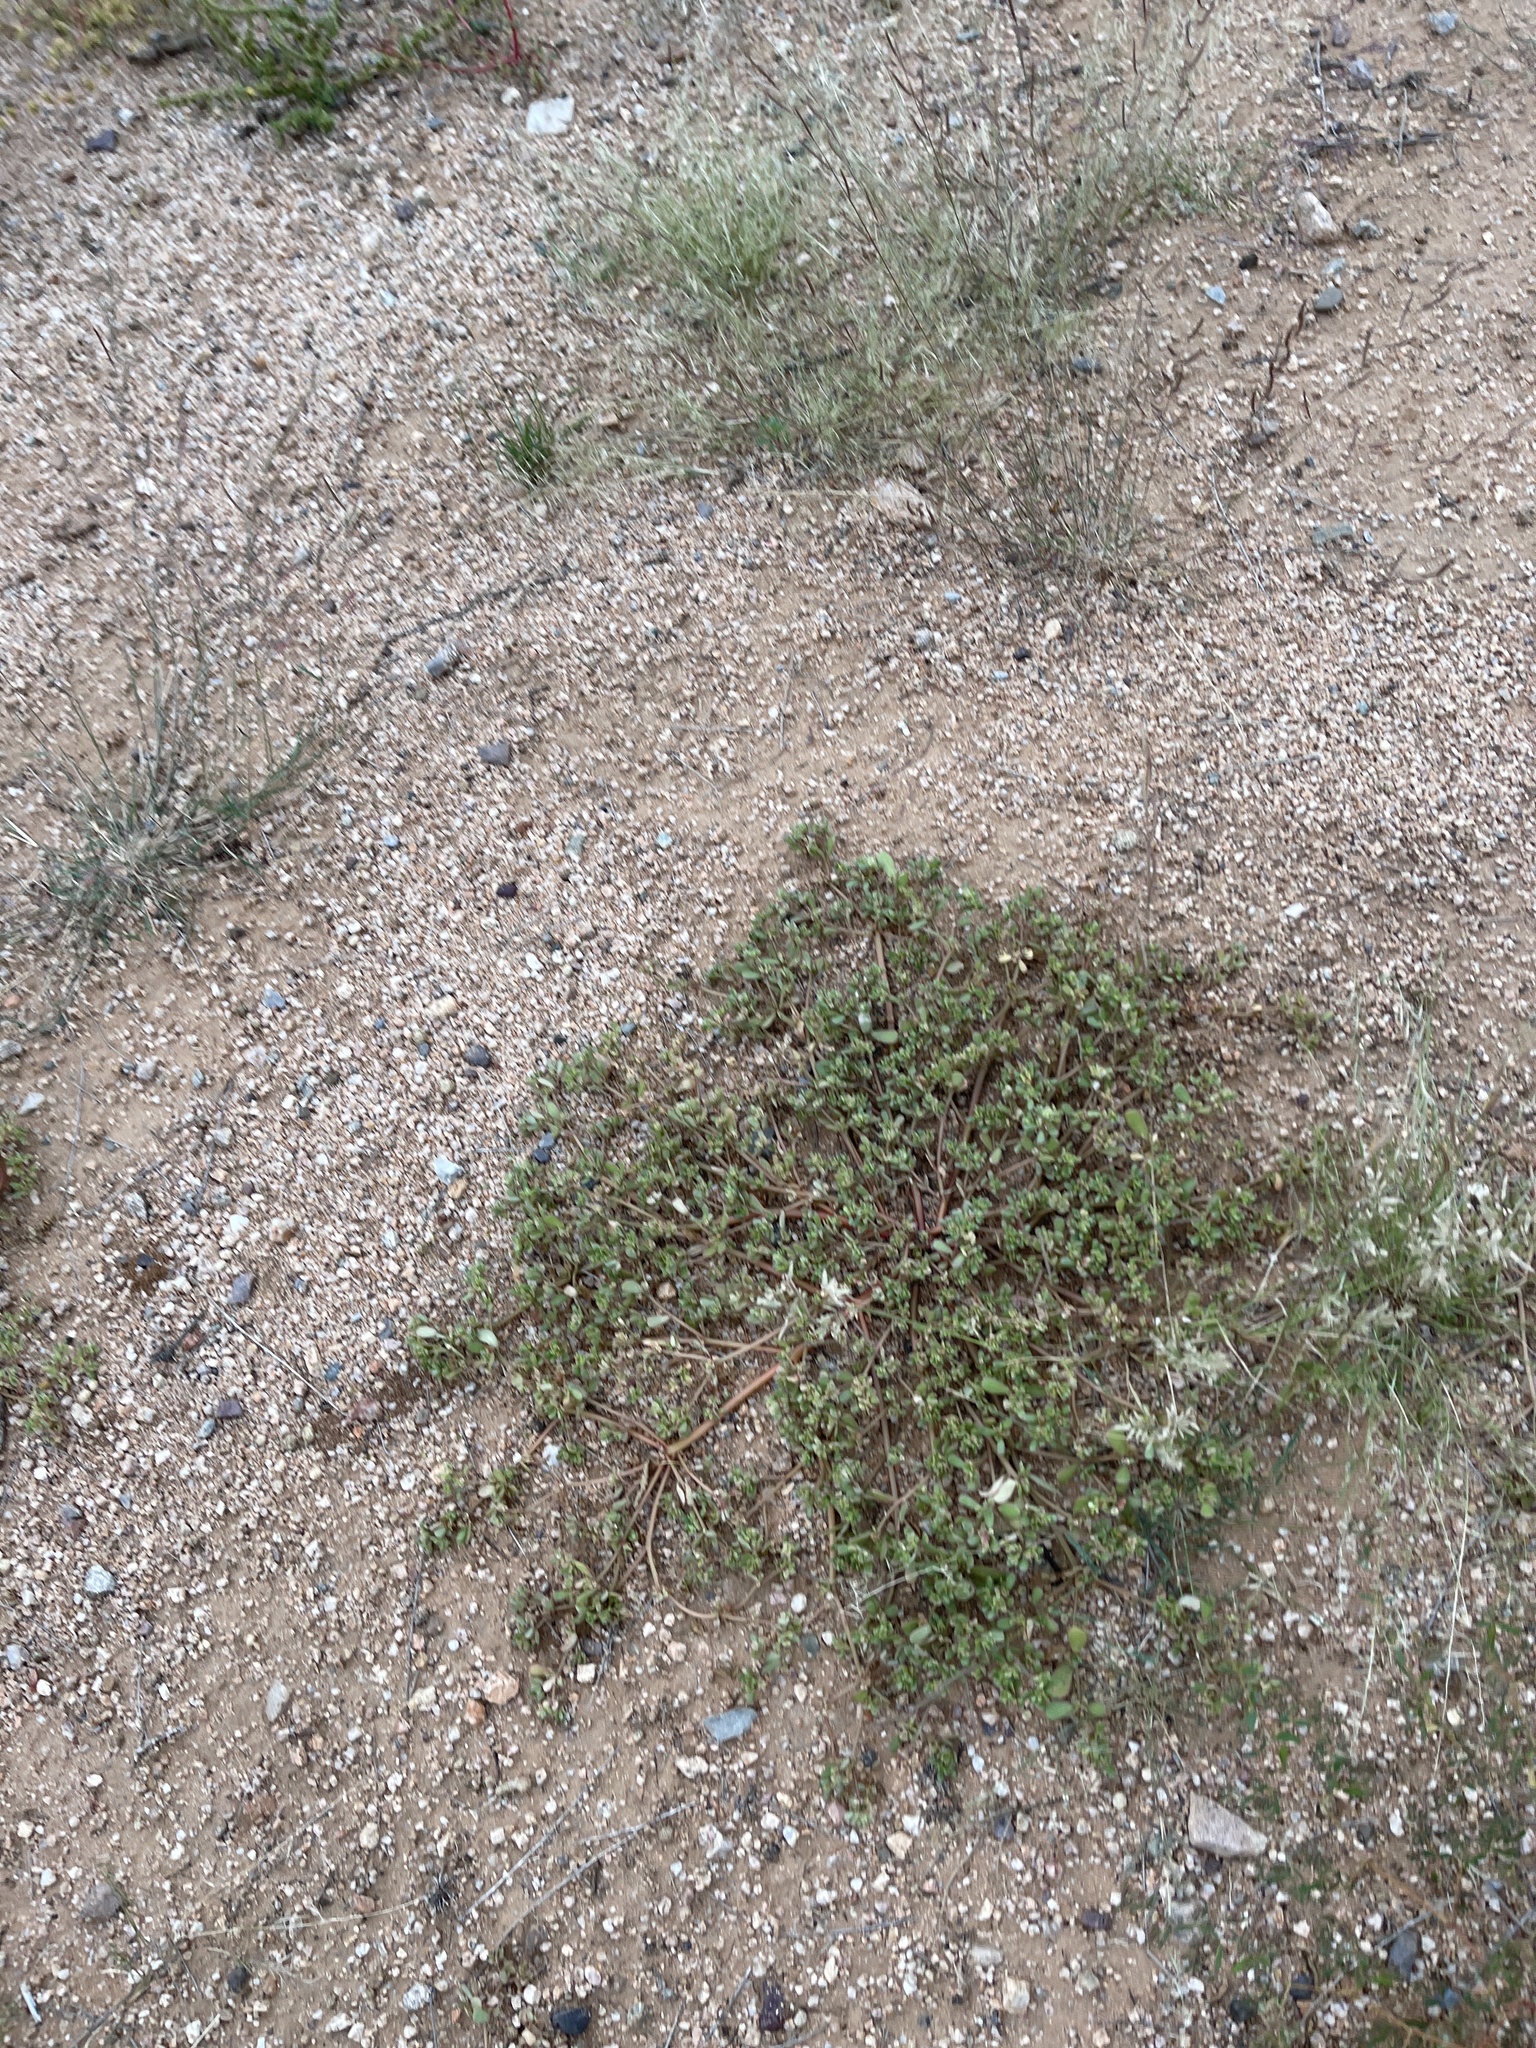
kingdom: Plantae
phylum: Tracheophyta
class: Magnoliopsida
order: Caryophyllales
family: Portulacaceae
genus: Portulaca
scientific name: Portulaca oleracea
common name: Common purslane
